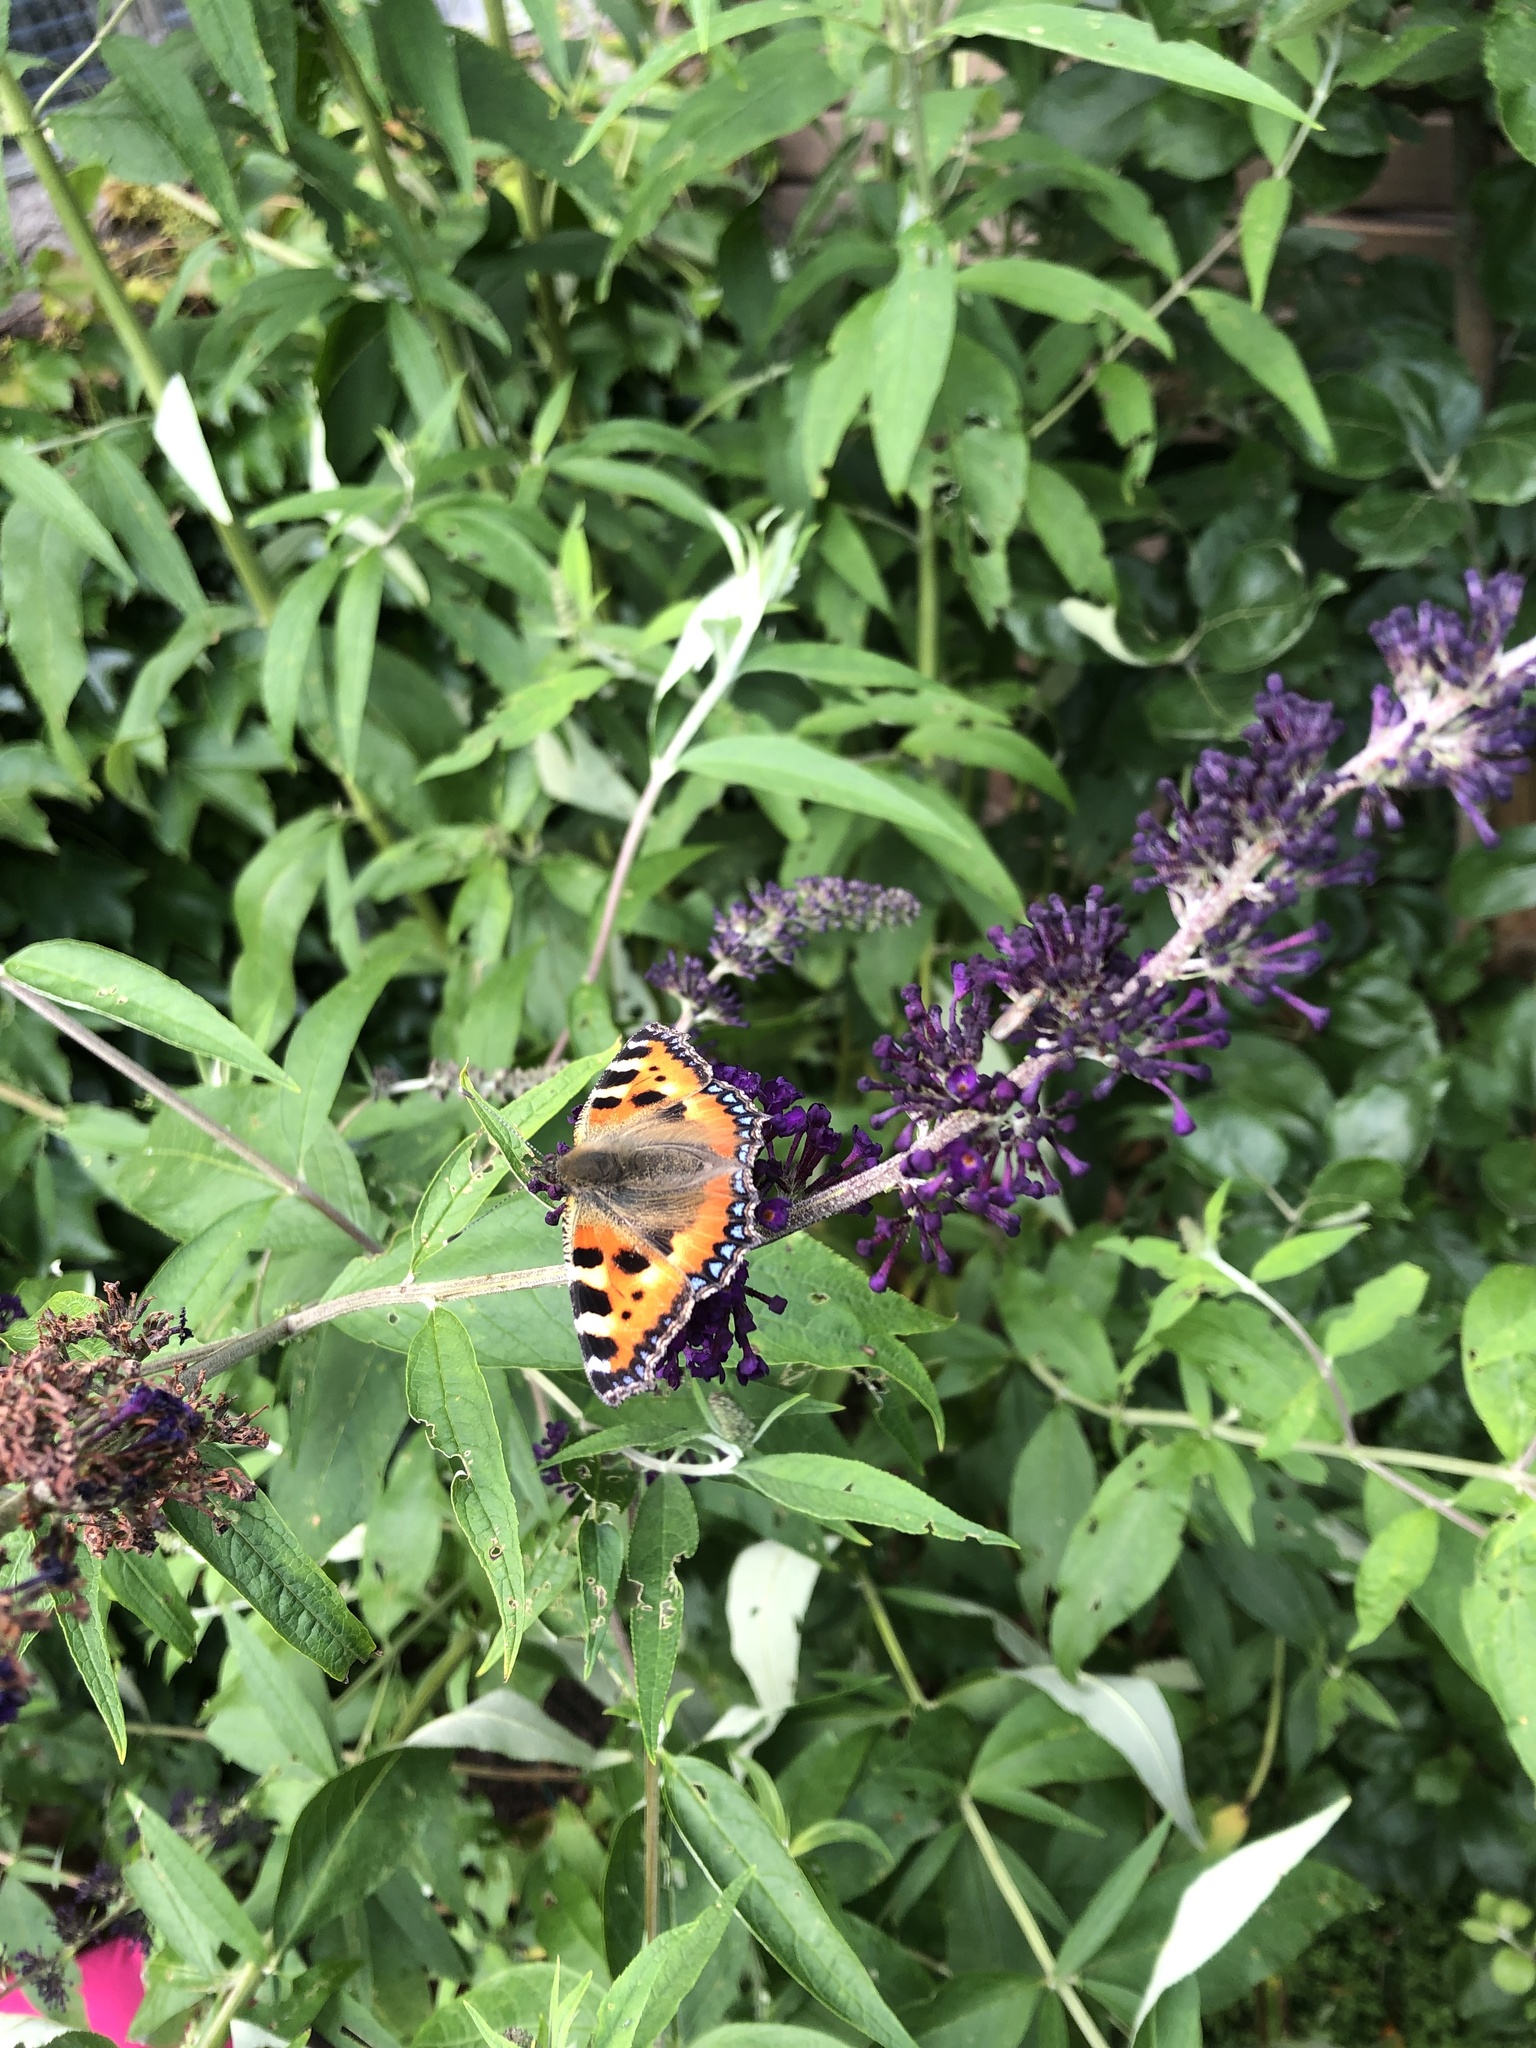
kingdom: Animalia
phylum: Arthropoda
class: Insecta
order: Lepidoptera
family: Nymphalidae
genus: Aglais
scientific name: Aglais urticae
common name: Small tortoiseshell
